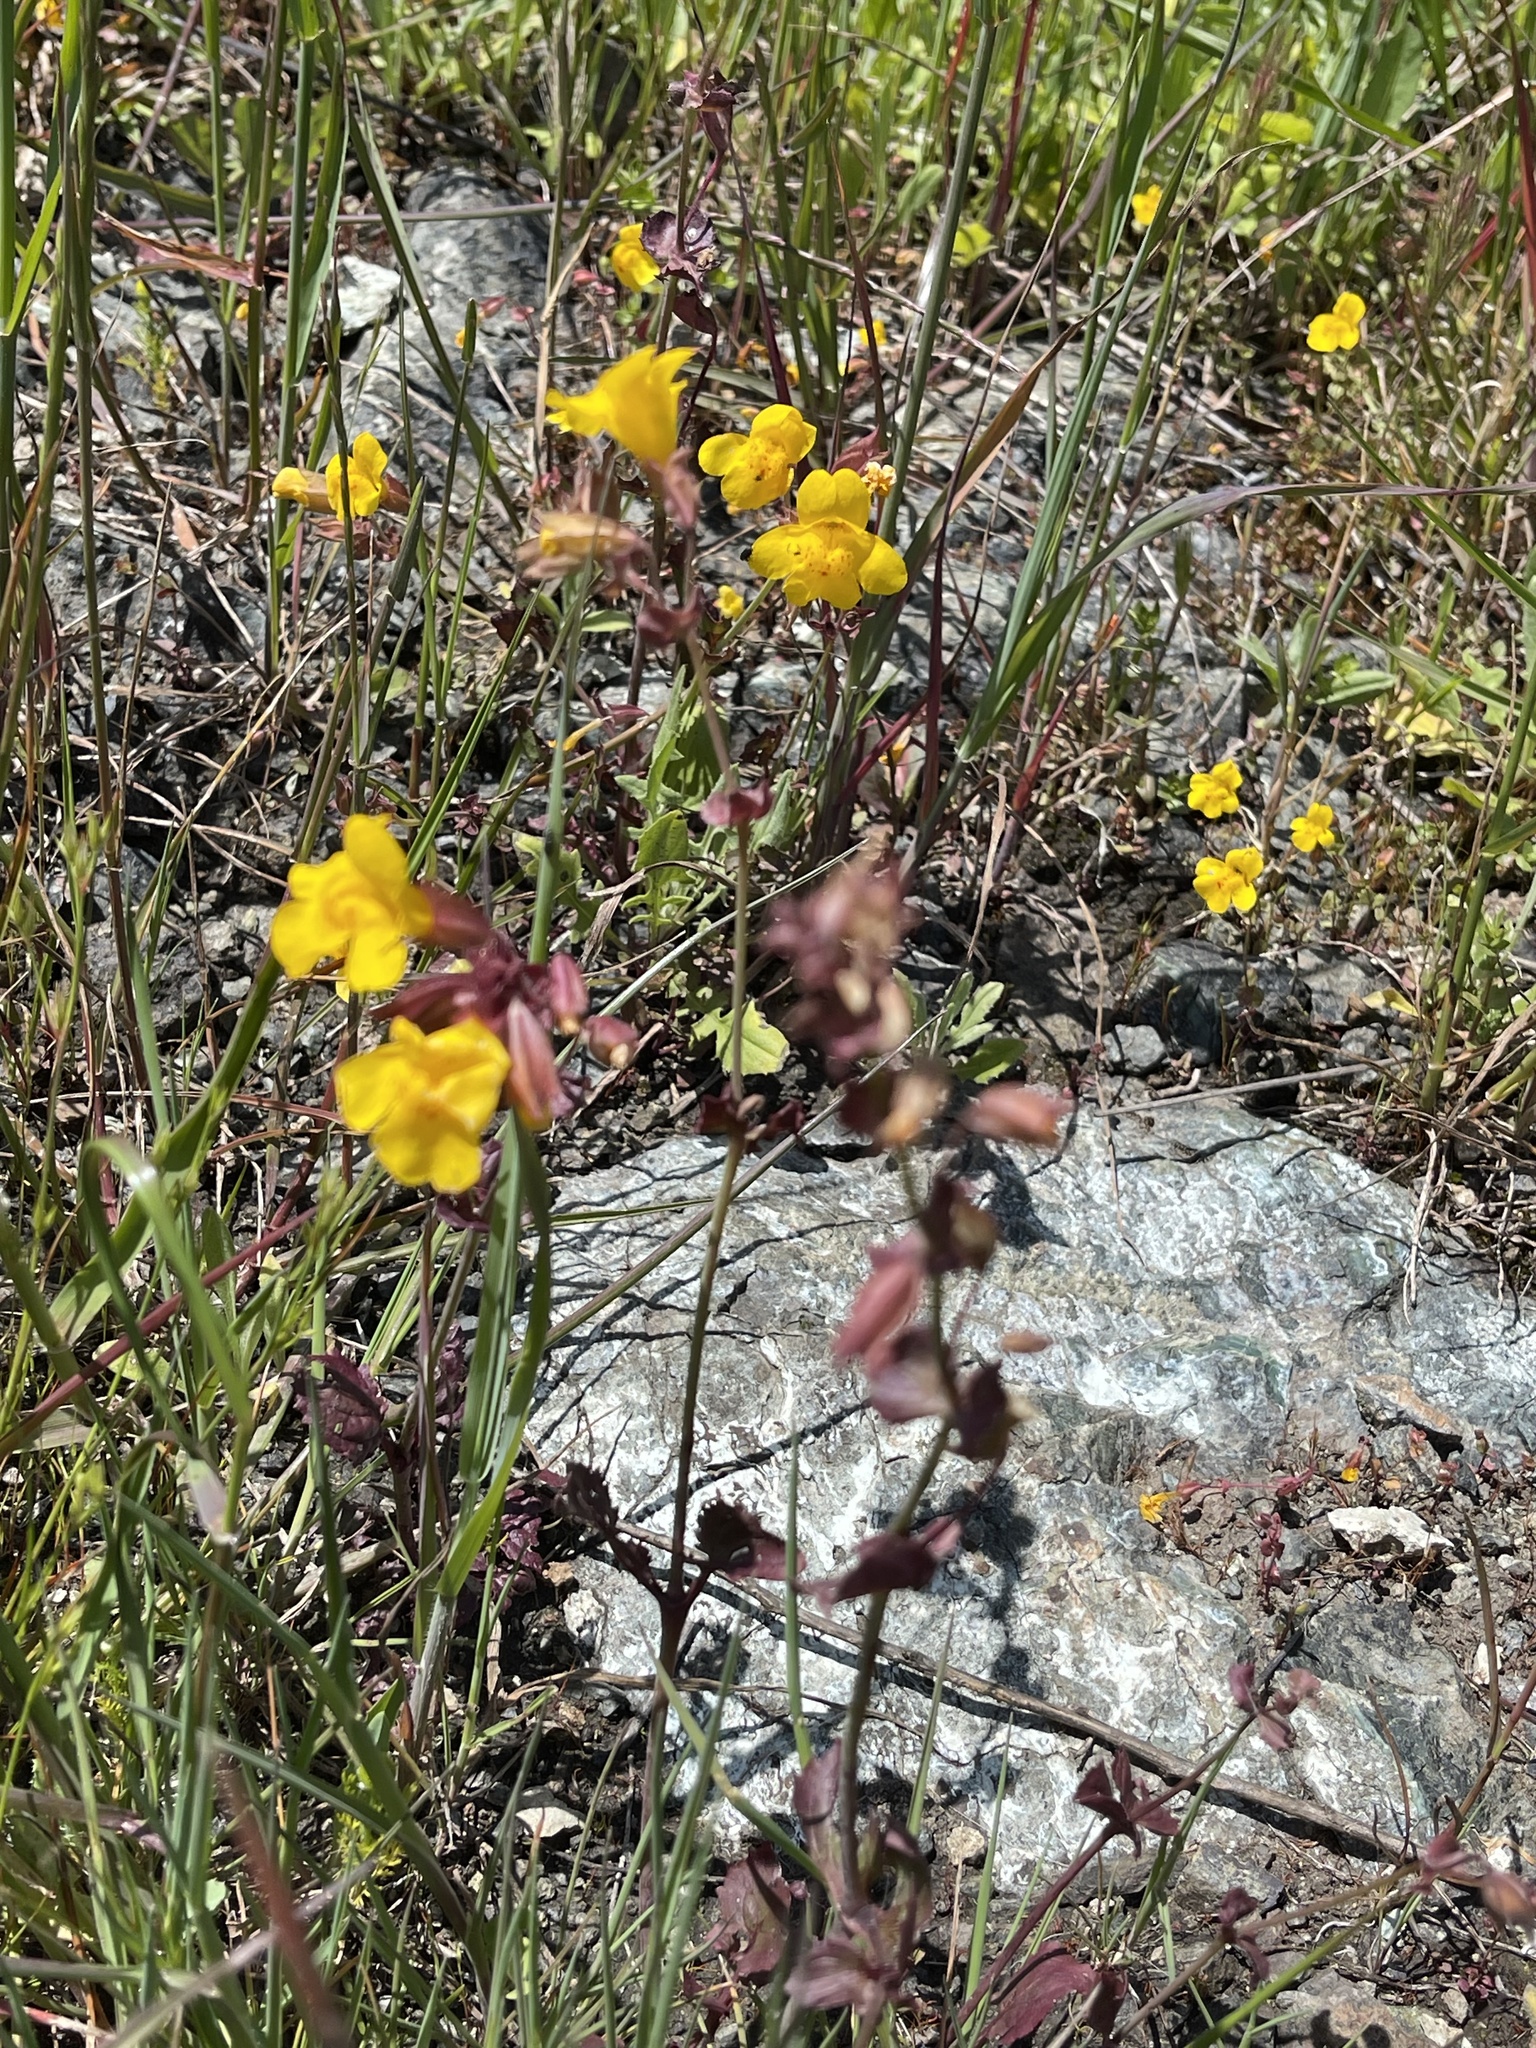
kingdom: Plantae
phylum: Tracheophyta
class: Magnoliopsida
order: Lamiales
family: Phrymaceae
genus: Erythranthe
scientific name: Erythranthe guttata
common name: Monkeyflower
